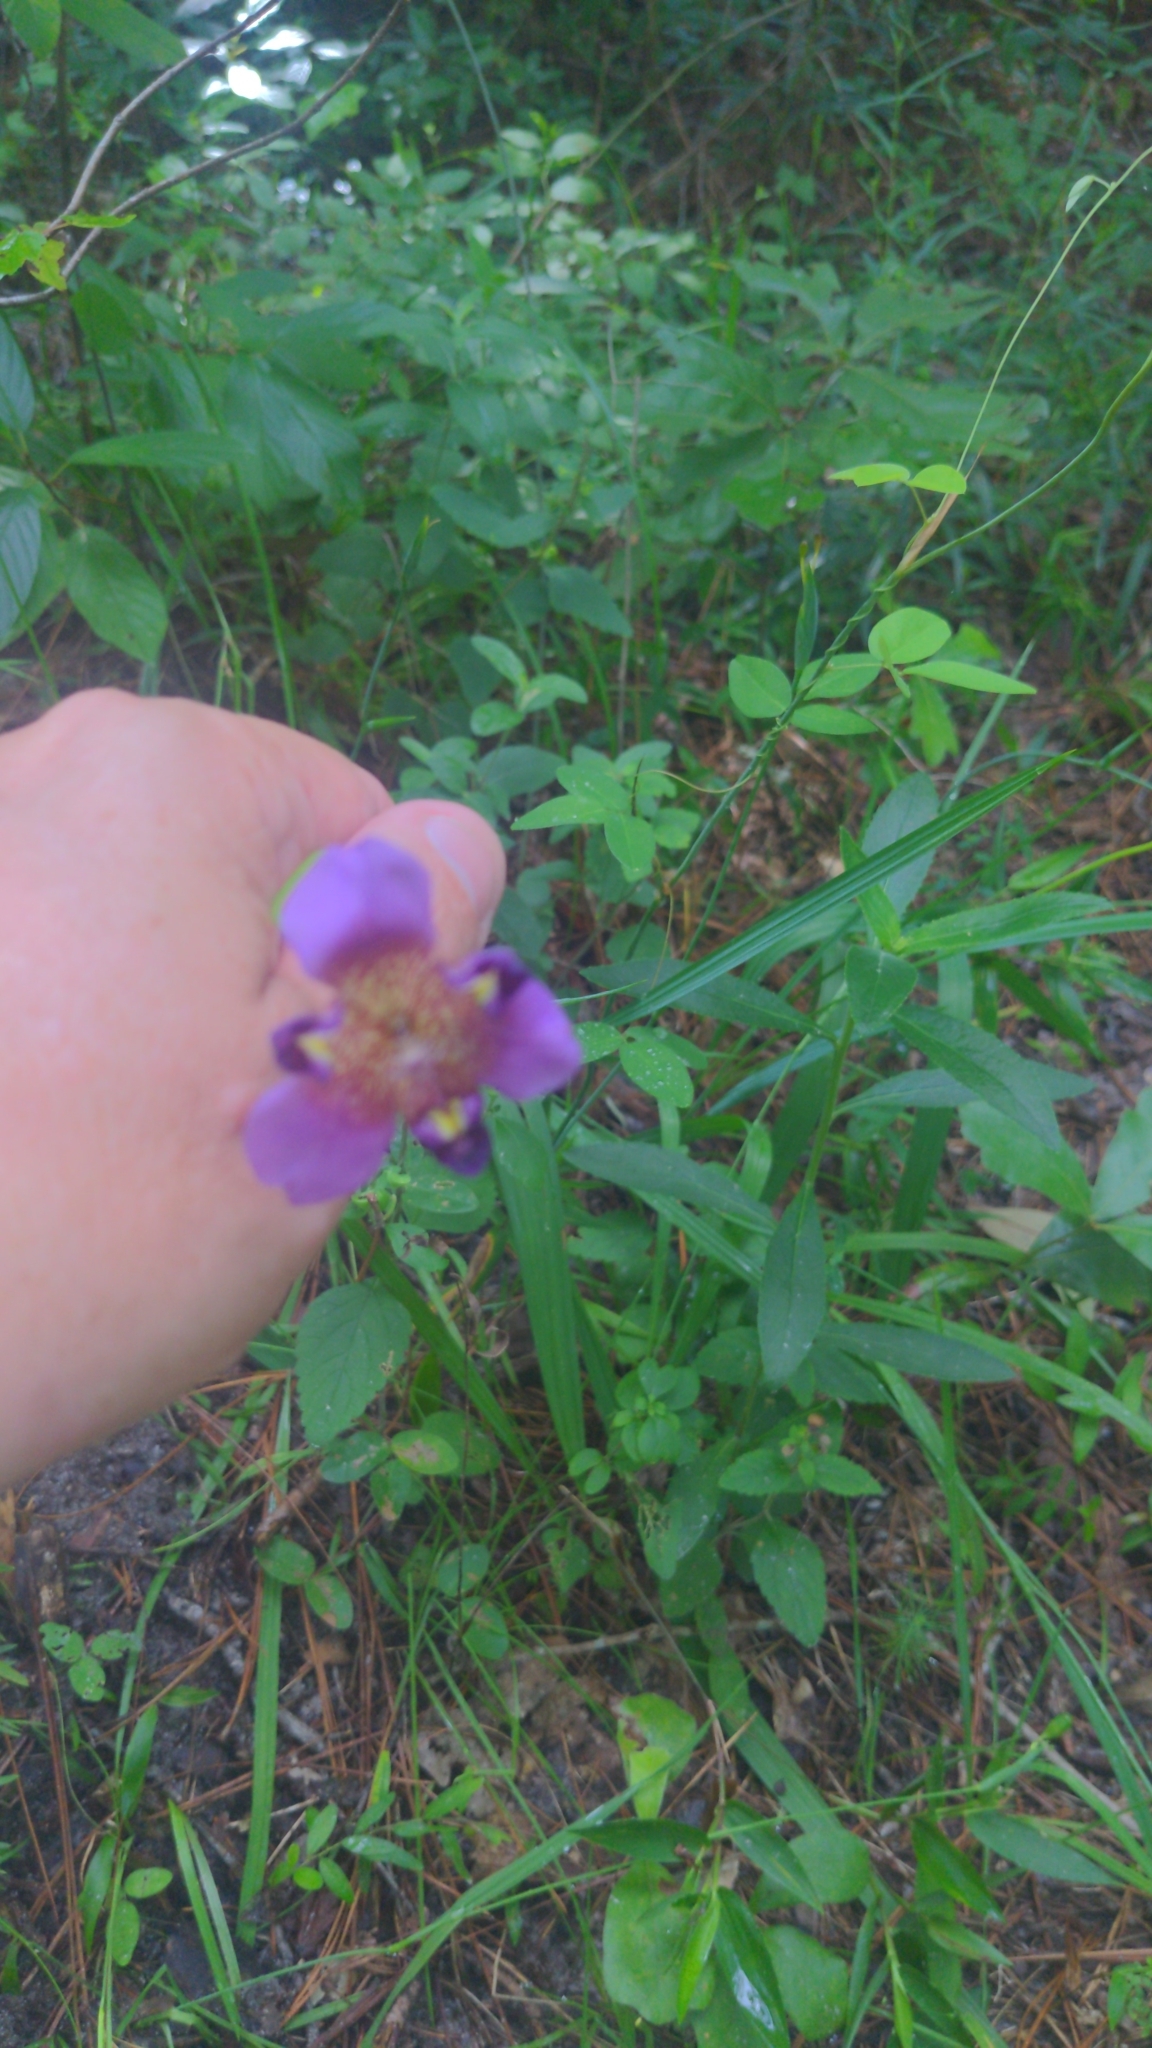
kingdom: Plantae
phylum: Tracheophyta
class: Liliopsida
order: Asparagales
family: Iridaceae
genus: Alophia
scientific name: Alophia drummondii
